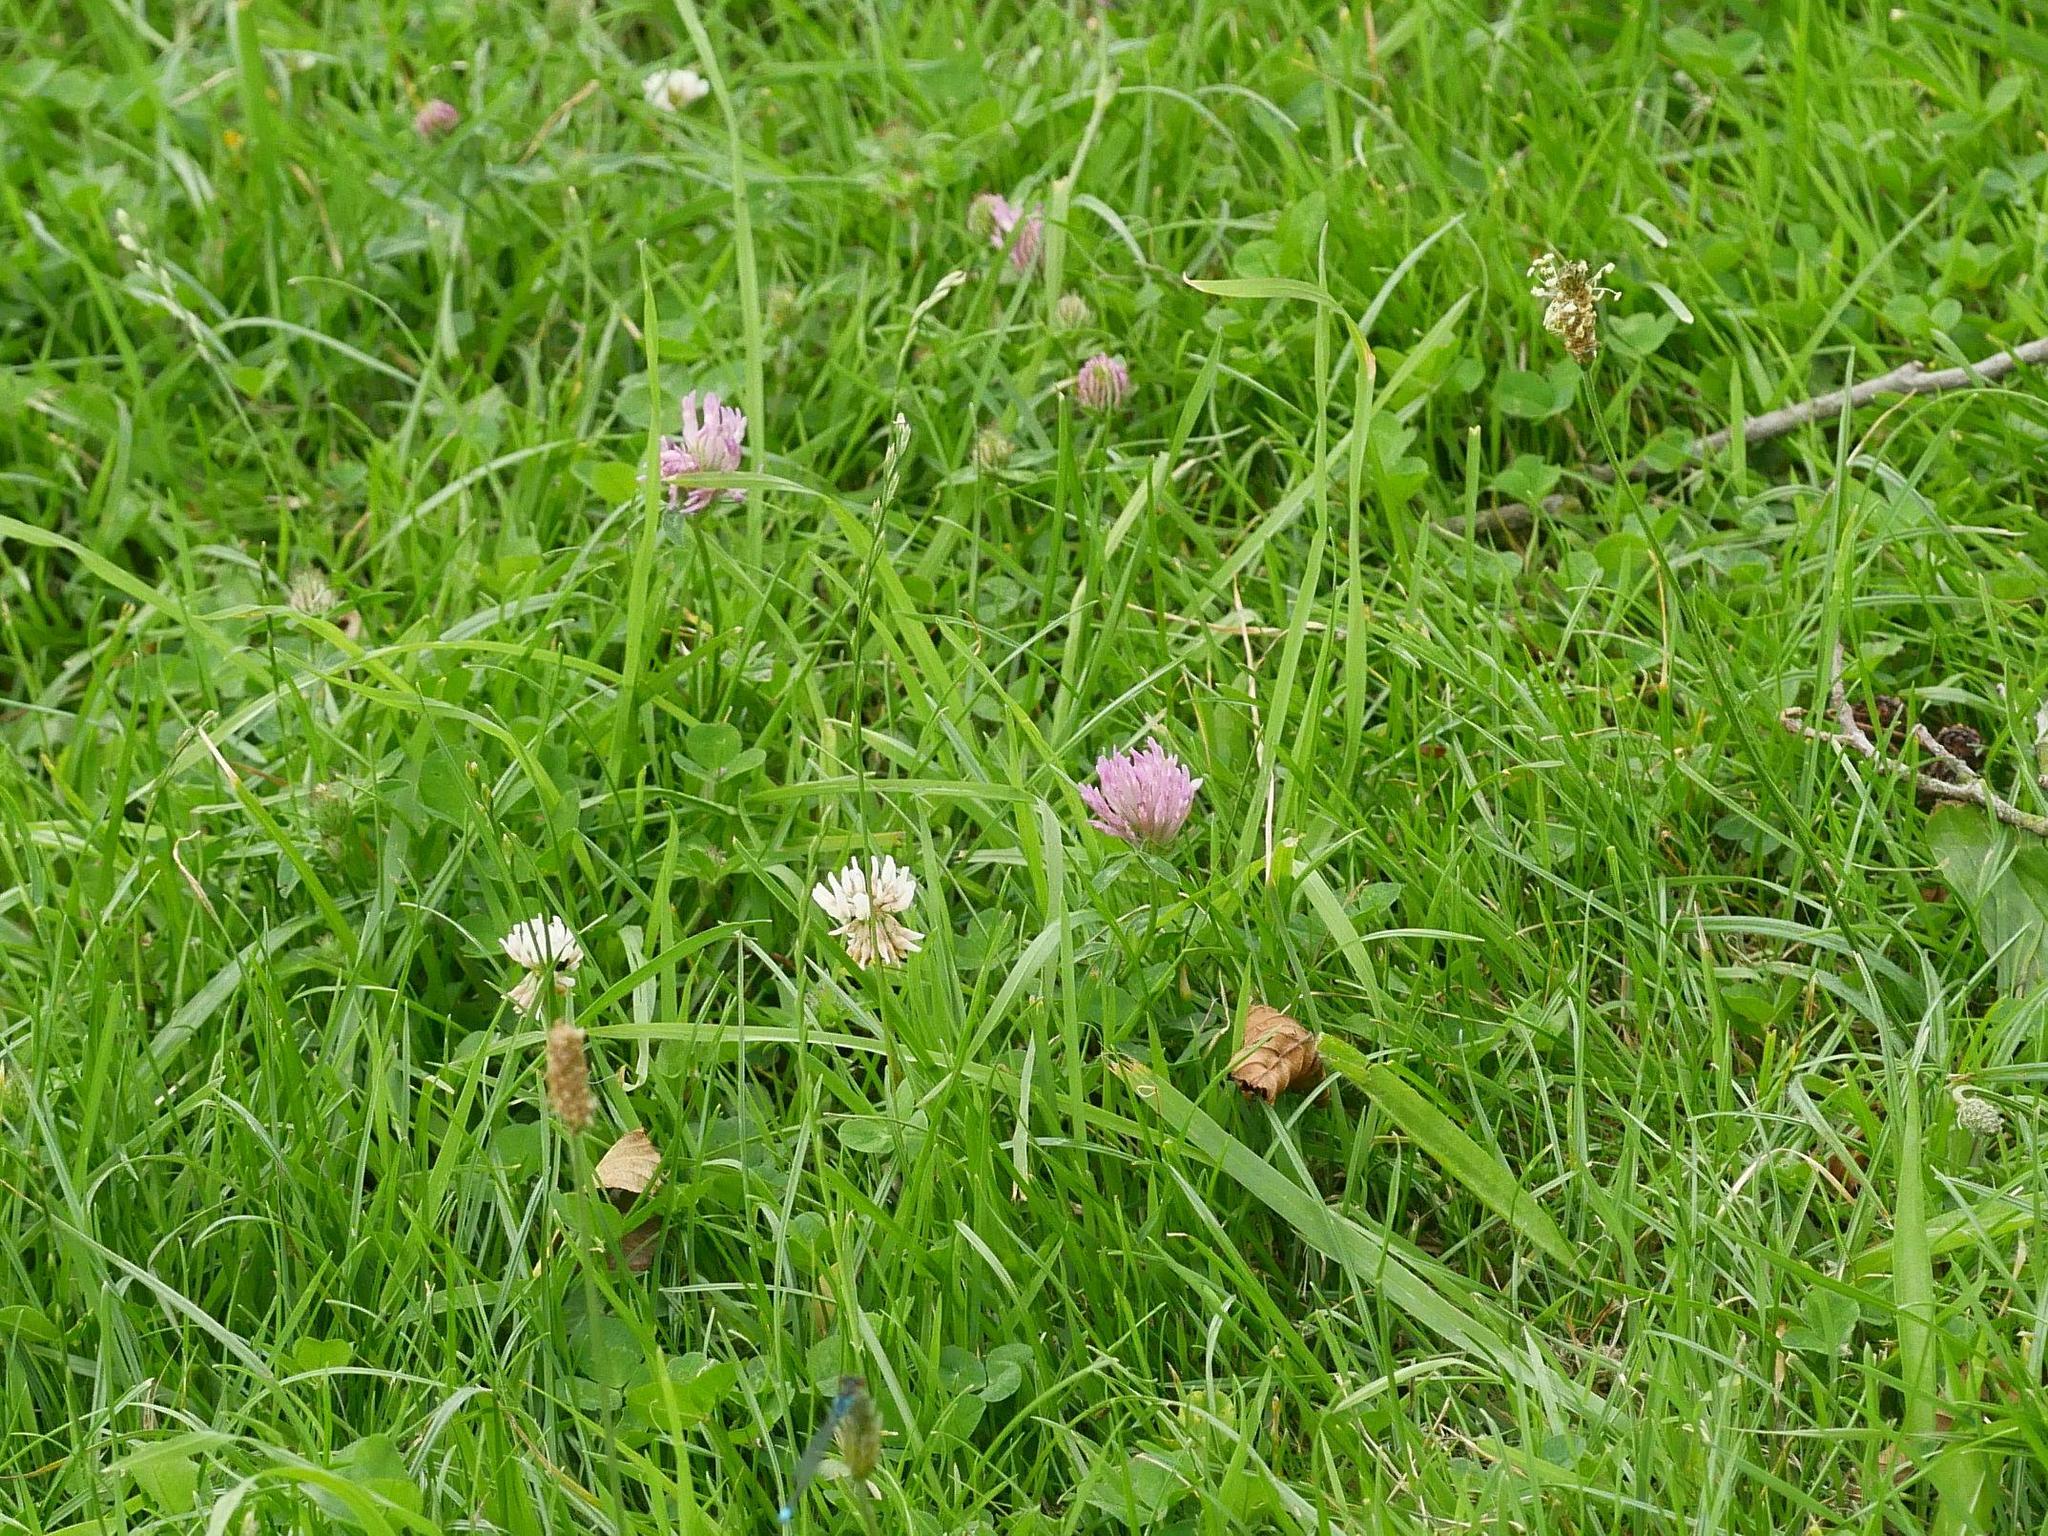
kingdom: Plantae
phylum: Tracheophyta
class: Magnoliopsida
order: Fabales
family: Fabaceae
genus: Trifolium
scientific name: Trifolium pratense
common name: Red clover
